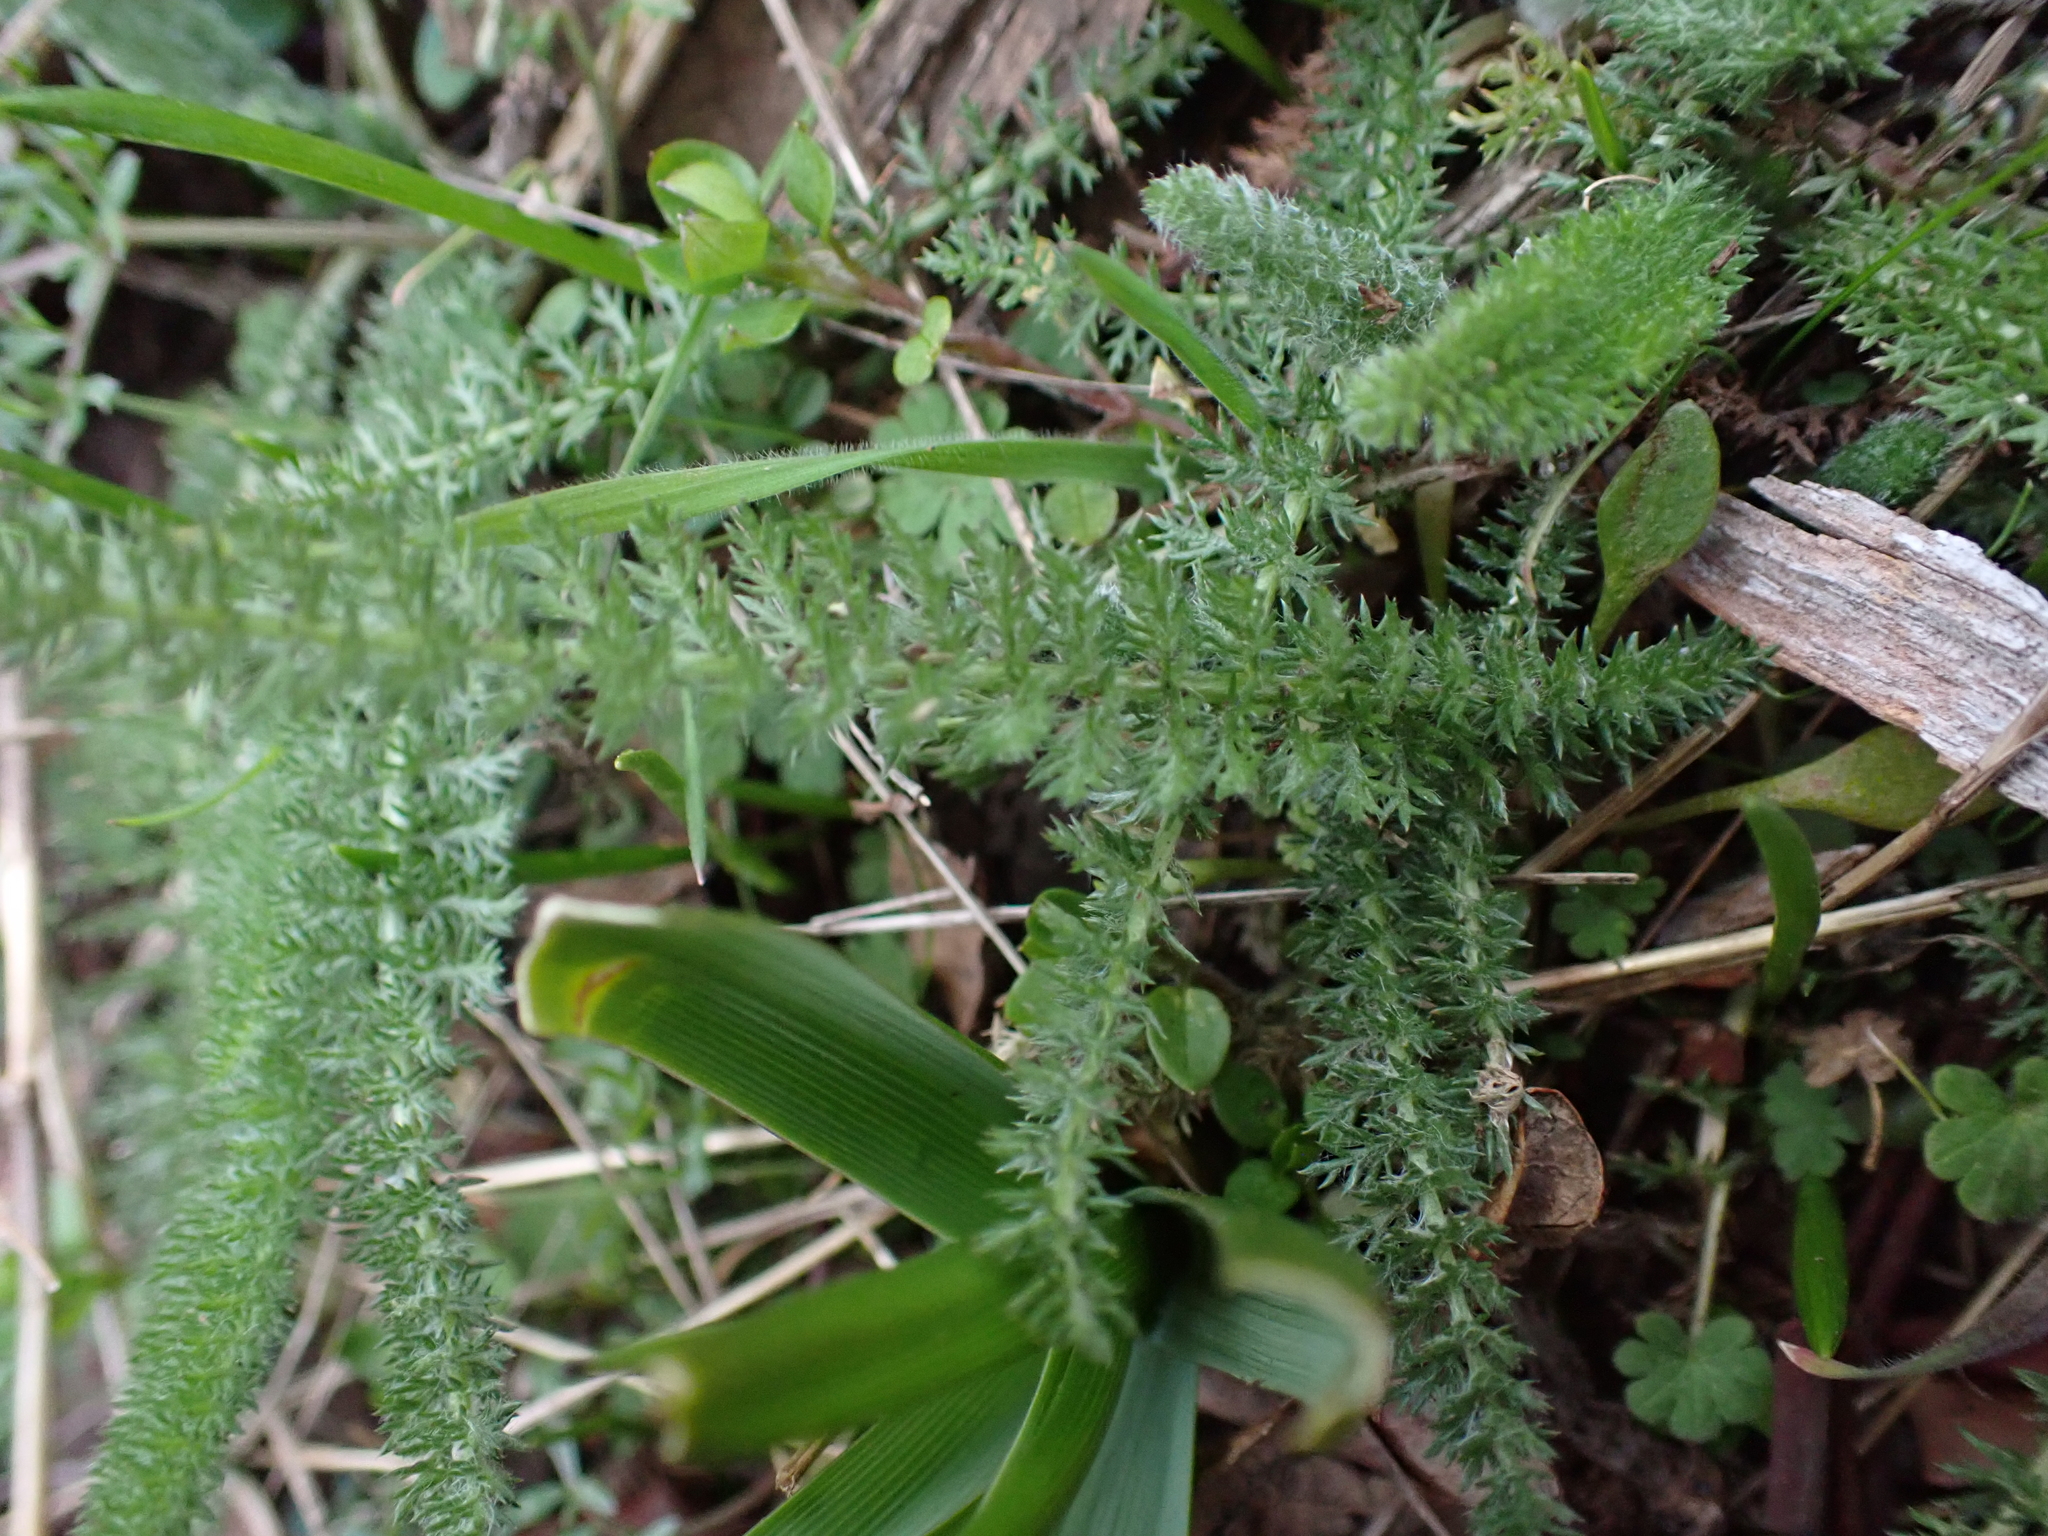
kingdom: Plantae
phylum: Tracheophyta
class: Magnoliopsida
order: Asterales
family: Asteraceae
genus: Achillea
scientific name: Achillea millefolium
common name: Yarrow
